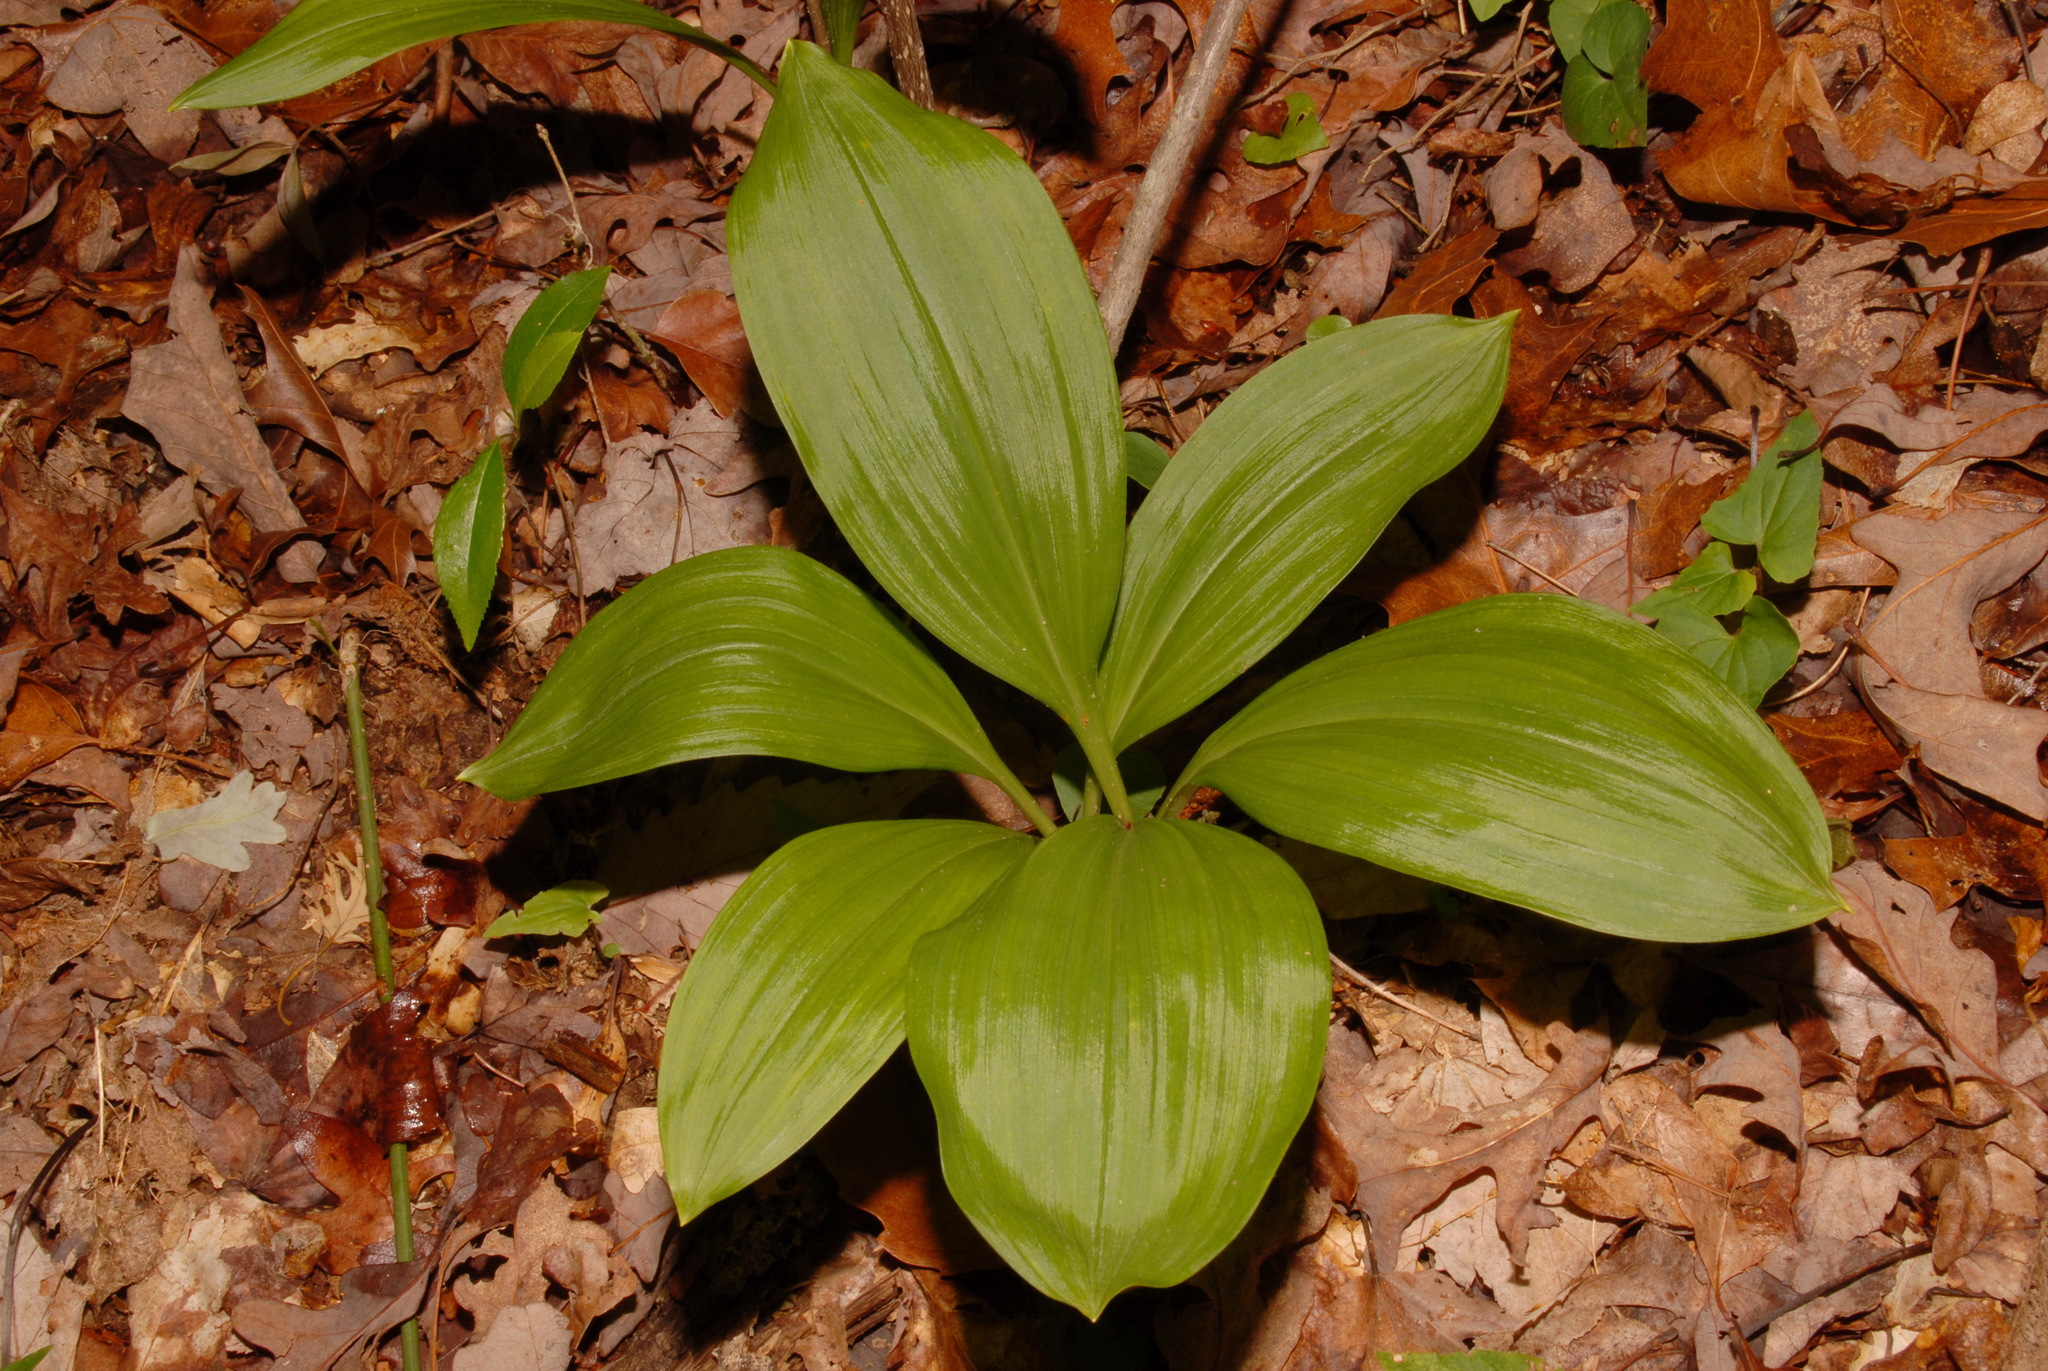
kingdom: Plantae
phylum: Tracheophyta
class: Liliopsida
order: Liliales
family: Melanthiaceae
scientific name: Melanthiaceae
